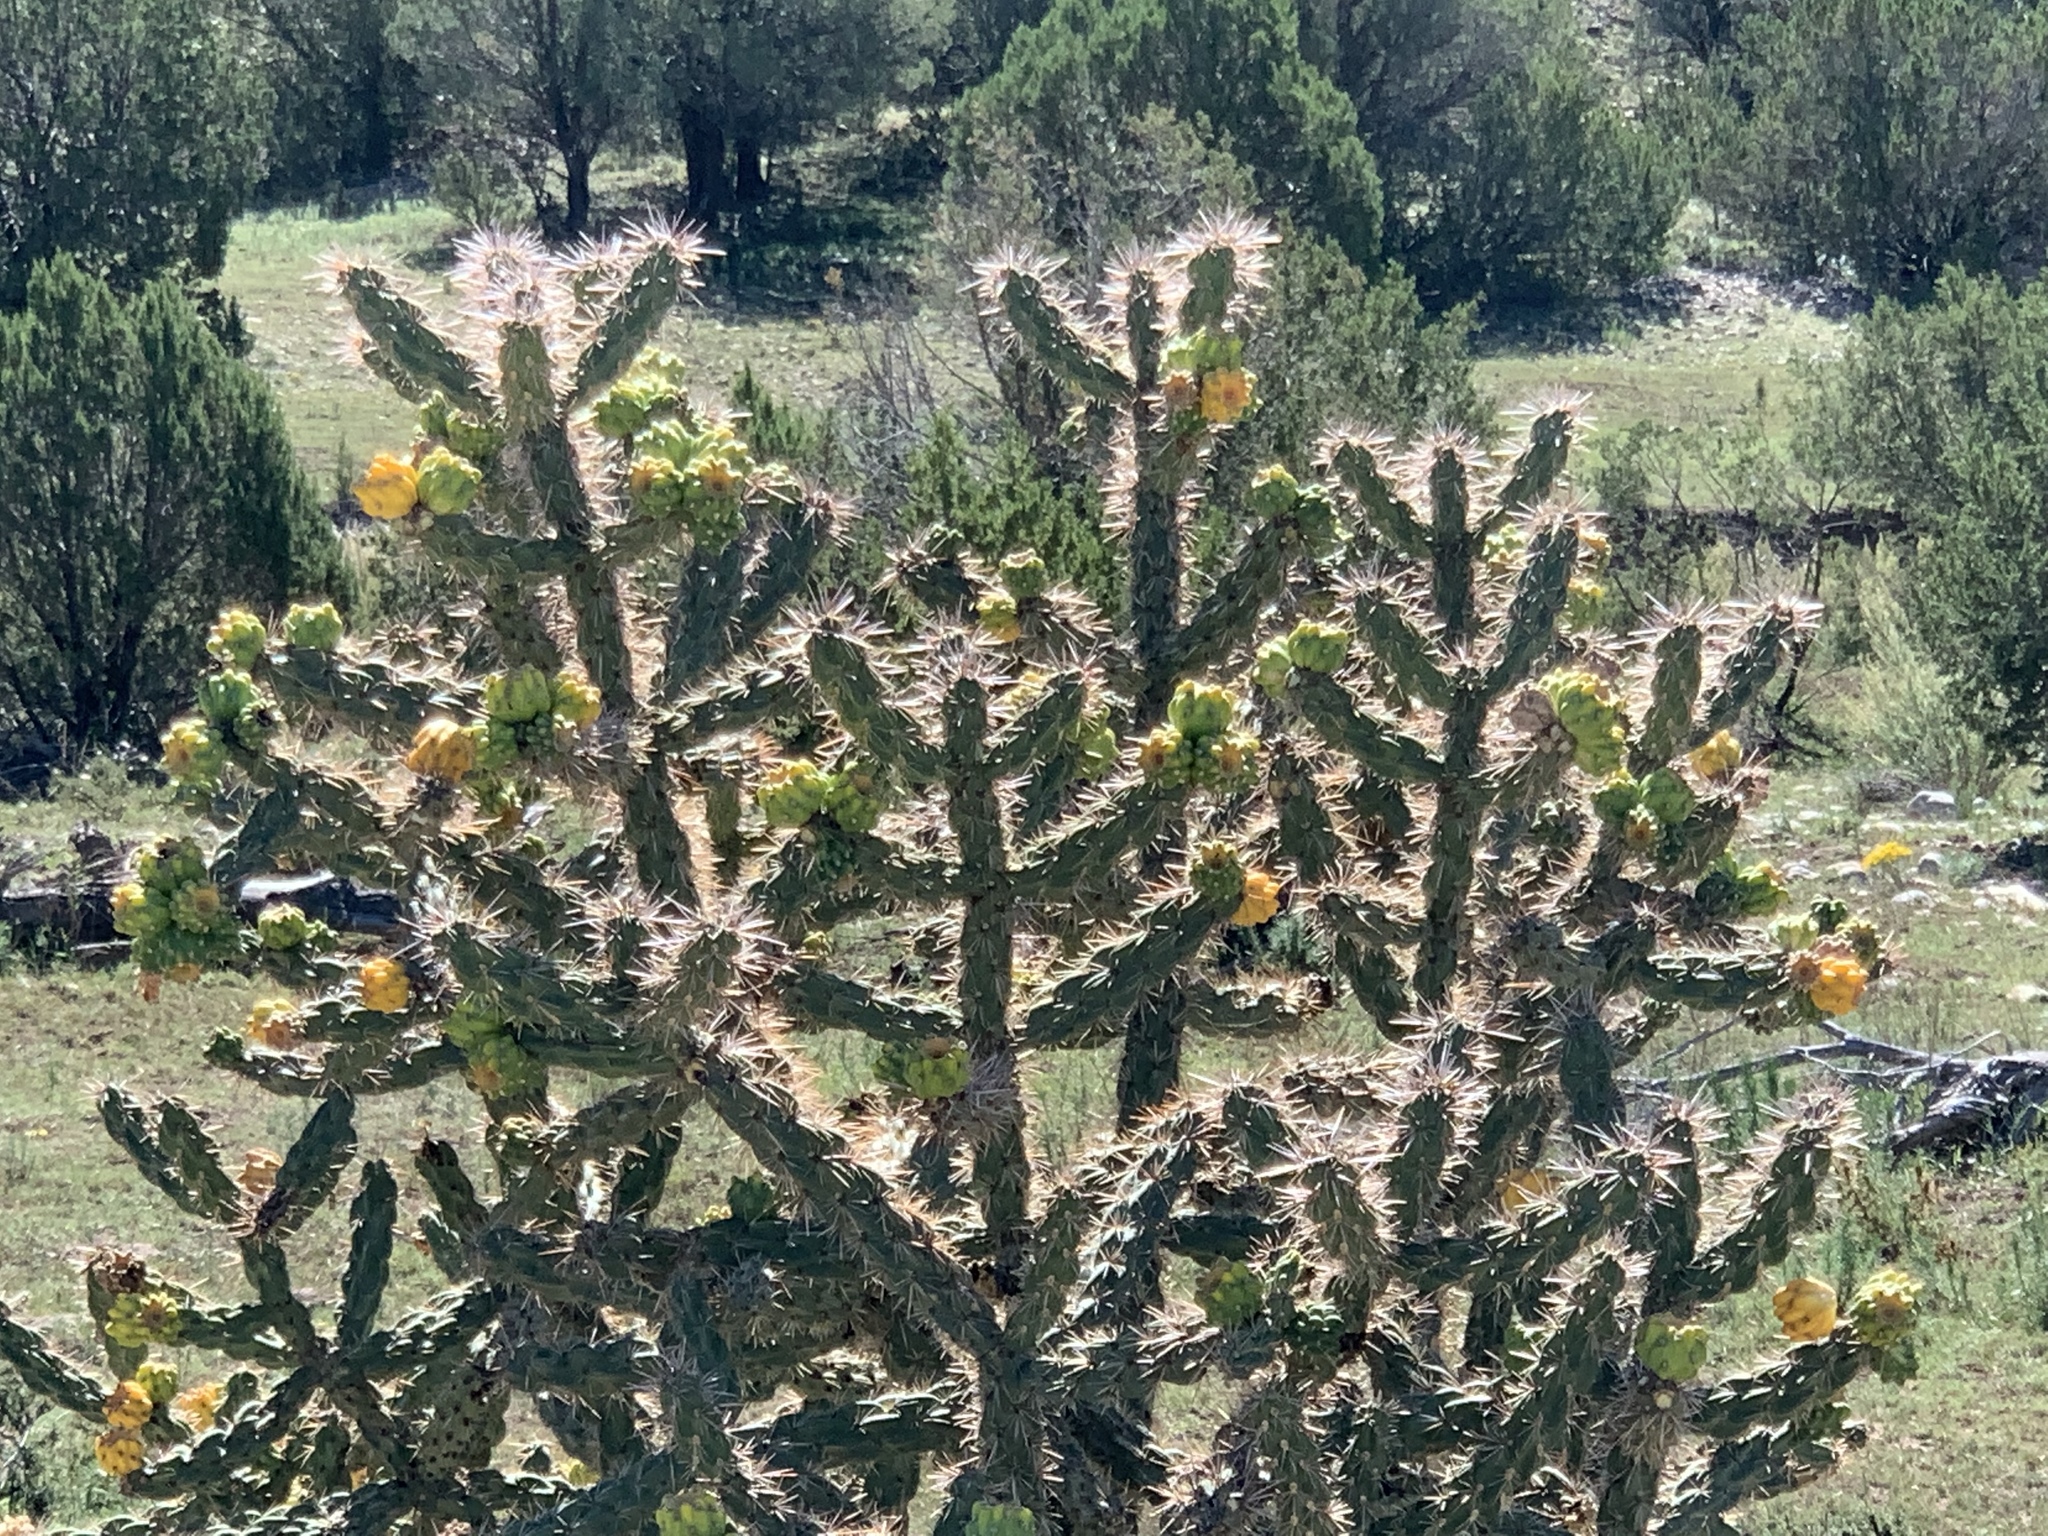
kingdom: Plantae
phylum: Tracheophyta
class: Magnoliopsida
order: Caryophyllales
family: Cactaceae
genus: Cylindropuntia
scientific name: Cylindropuntia imbricata
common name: Candelabrum cactus
